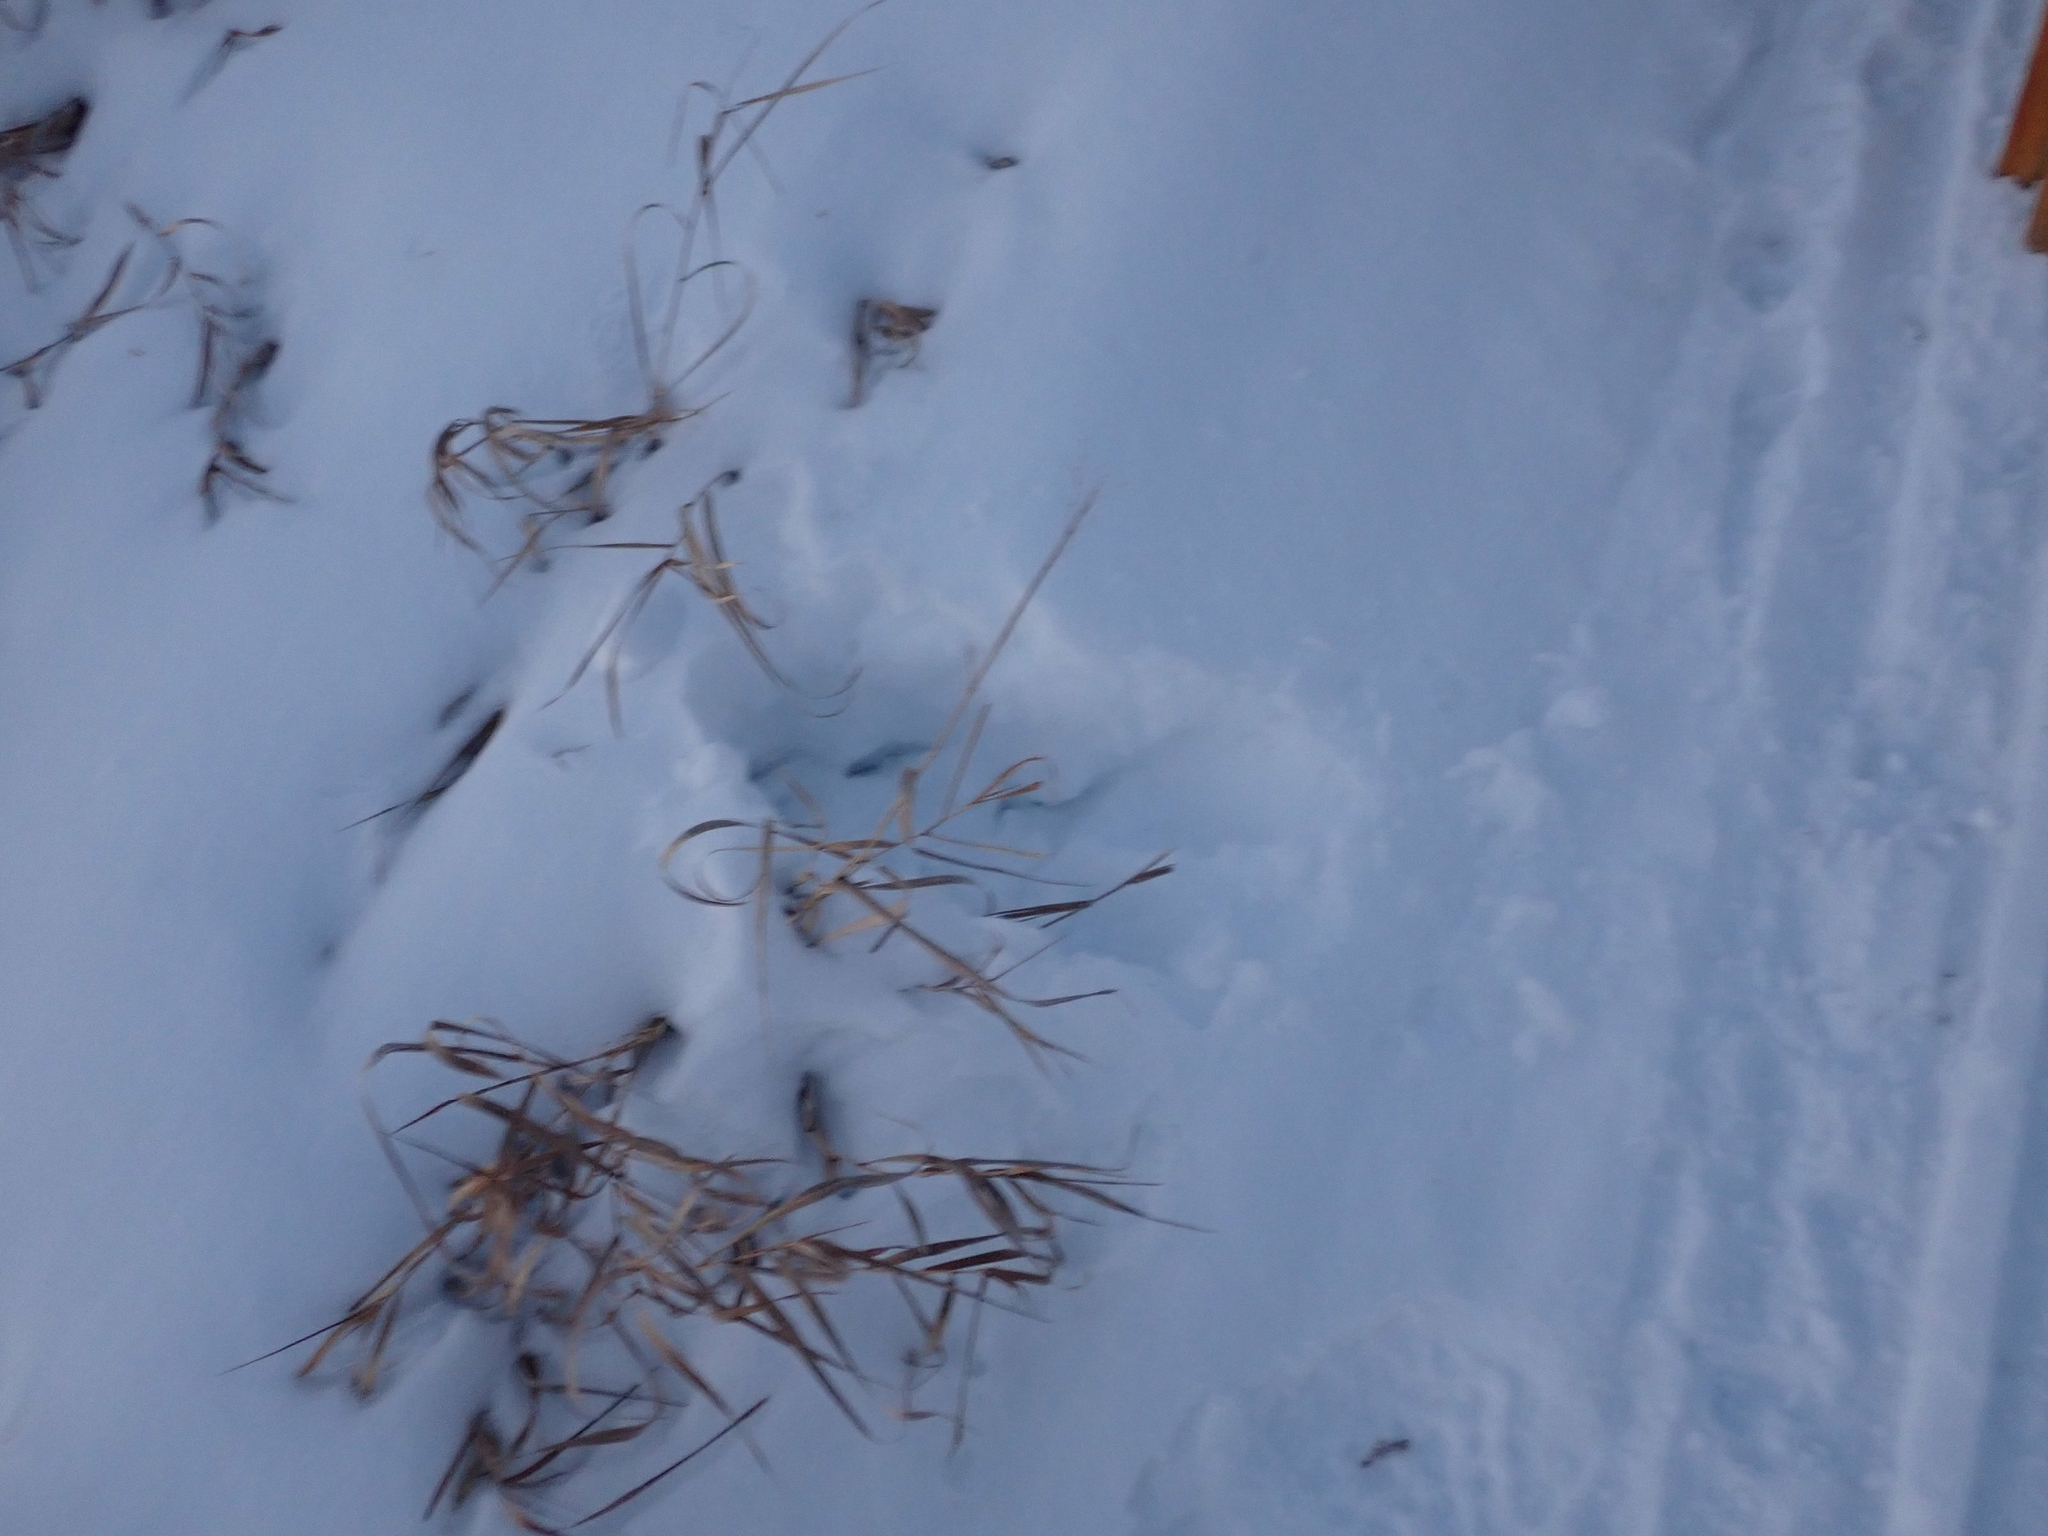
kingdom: Animalia
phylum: Chordata
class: Aves
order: Strigiformes
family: Strigidae
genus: Surnia
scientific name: Surnia ulula
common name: Northern hawk-owl
